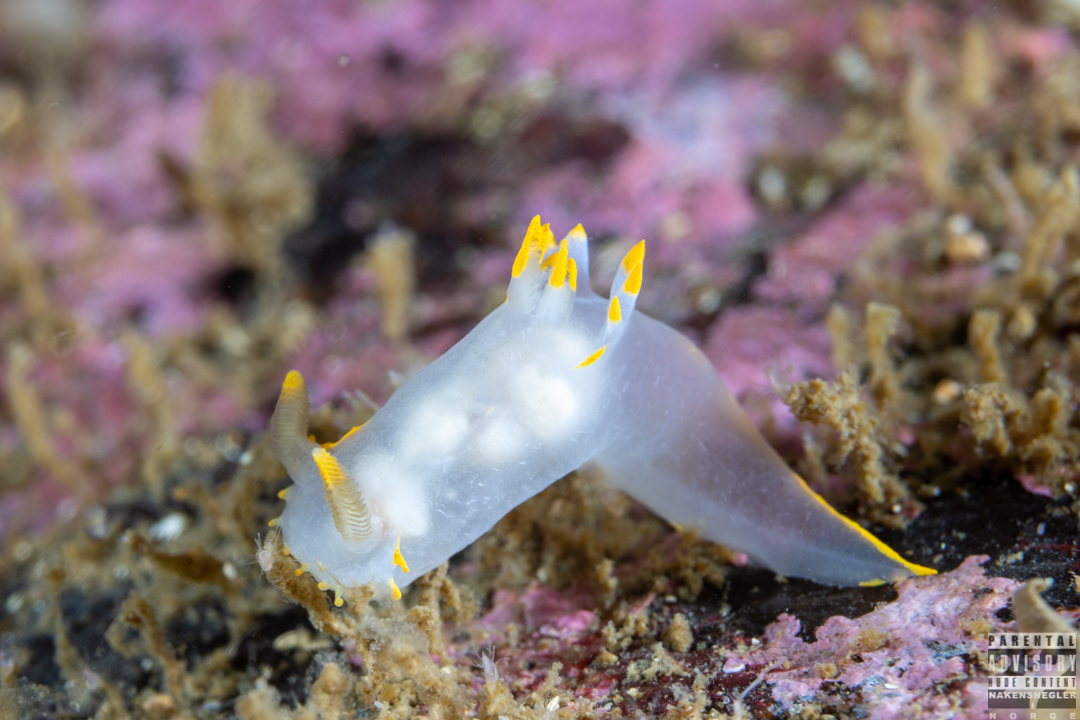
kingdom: Animalia
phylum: Mollusca
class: Gastropoda
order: Nudibranchia
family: Polyceridae
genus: Polycera
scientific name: Polycera faeroensis
